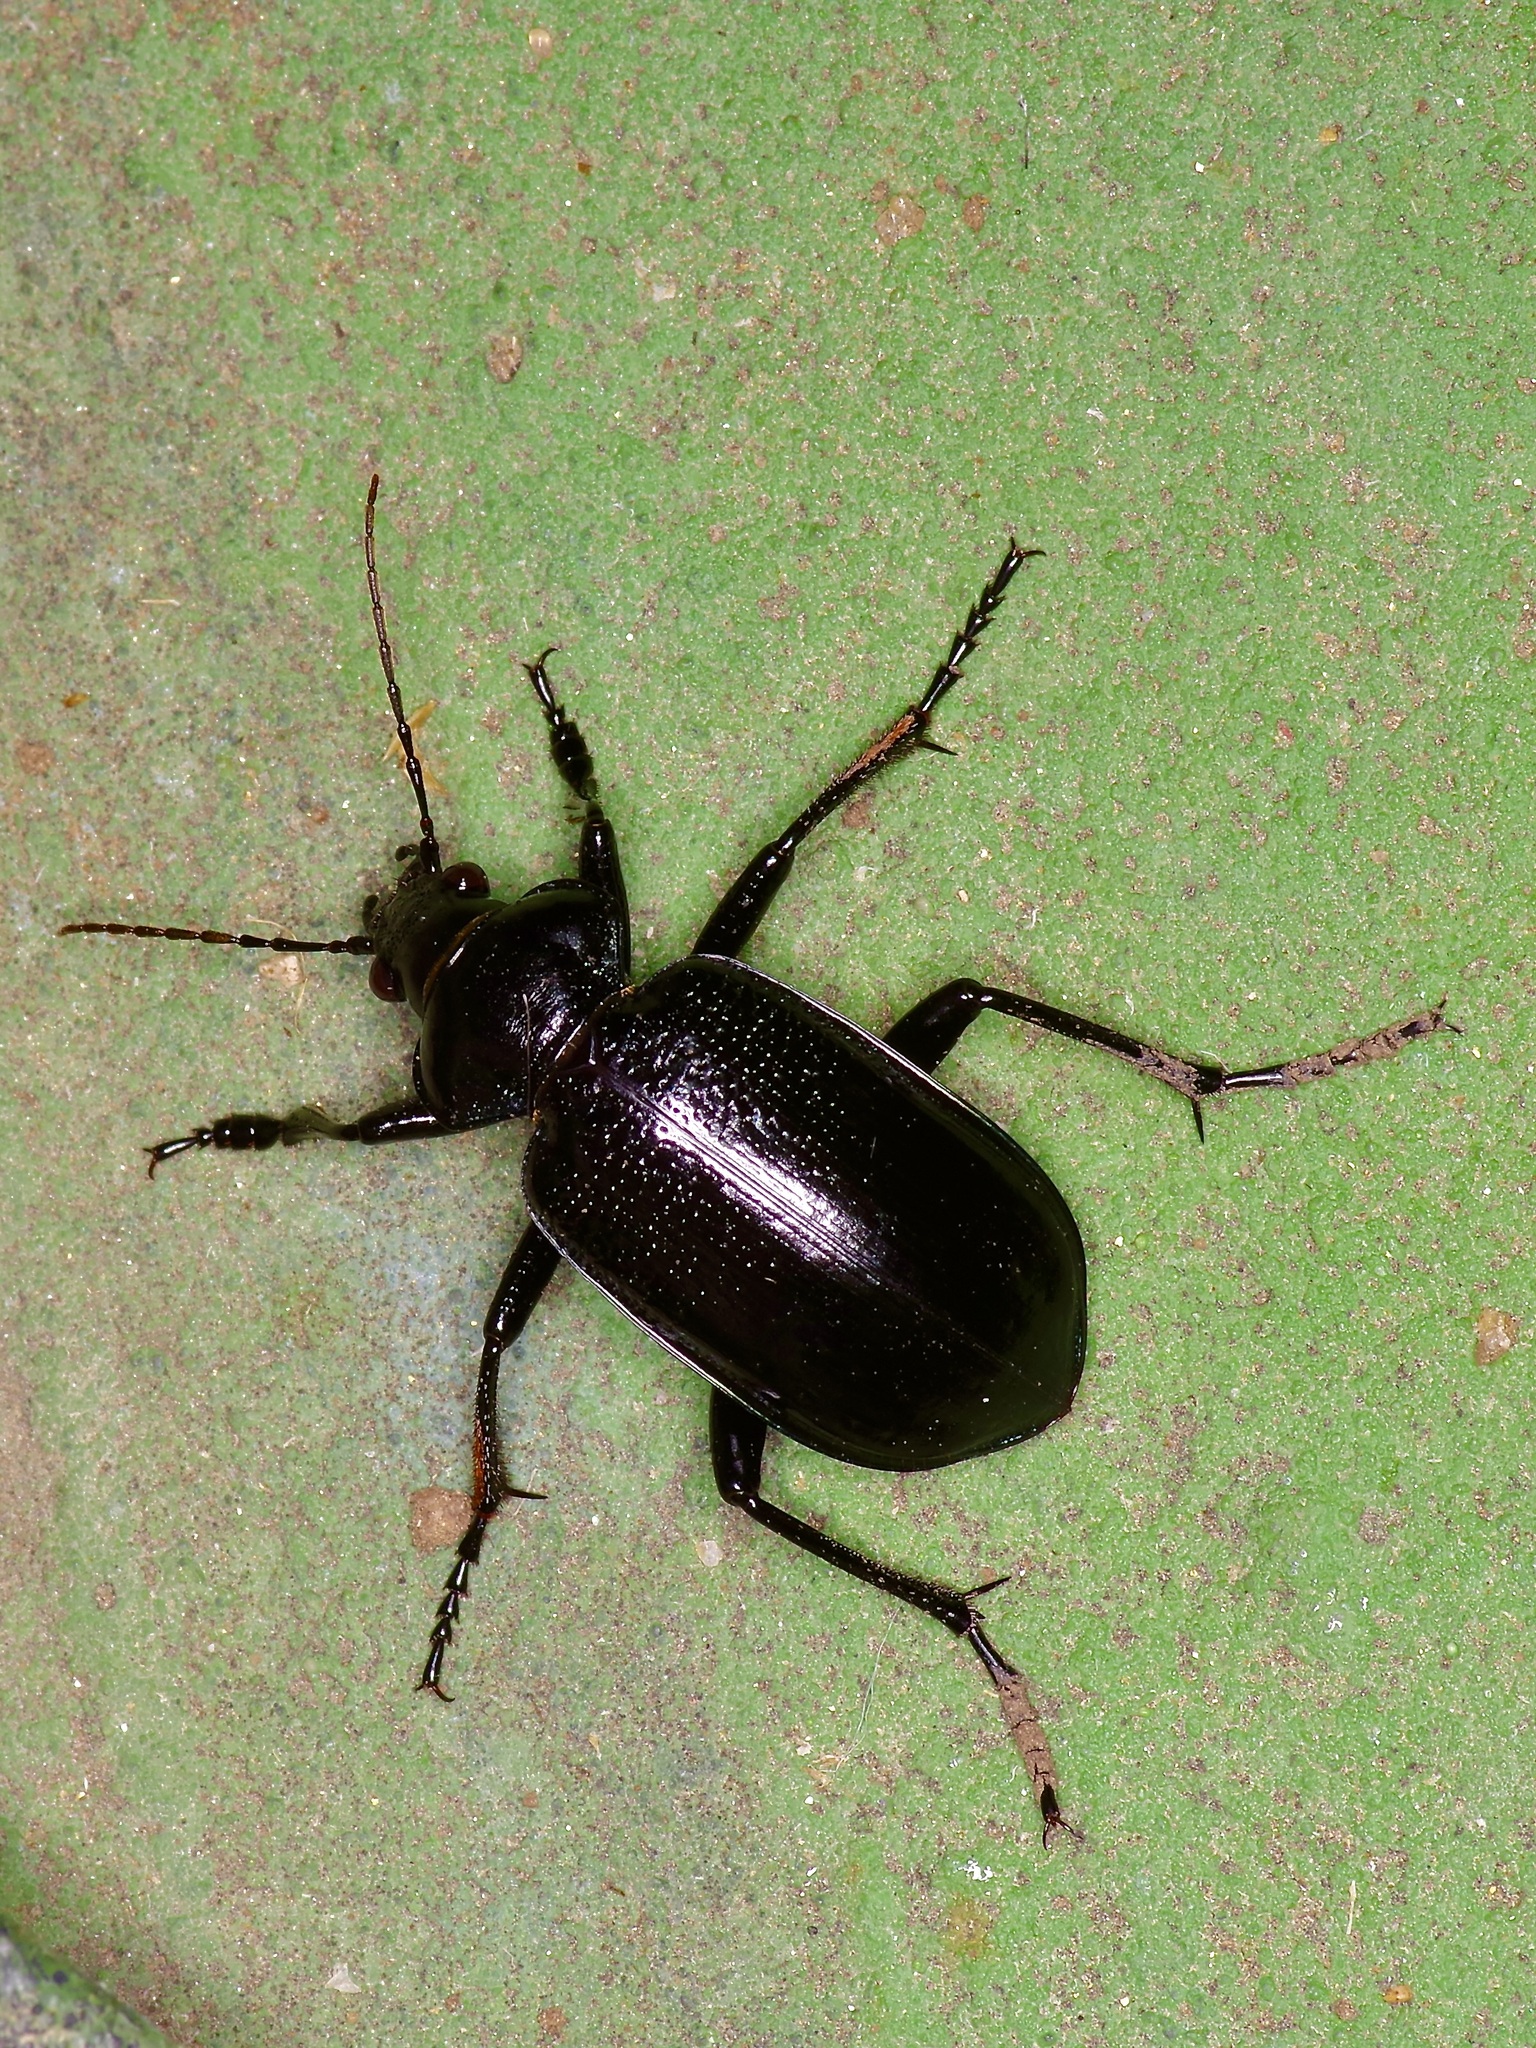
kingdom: Animalia
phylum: Arthropoda
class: Insecta
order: Coleoptera
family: Carabidae
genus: Calosoma
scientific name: Calosoma marginale
